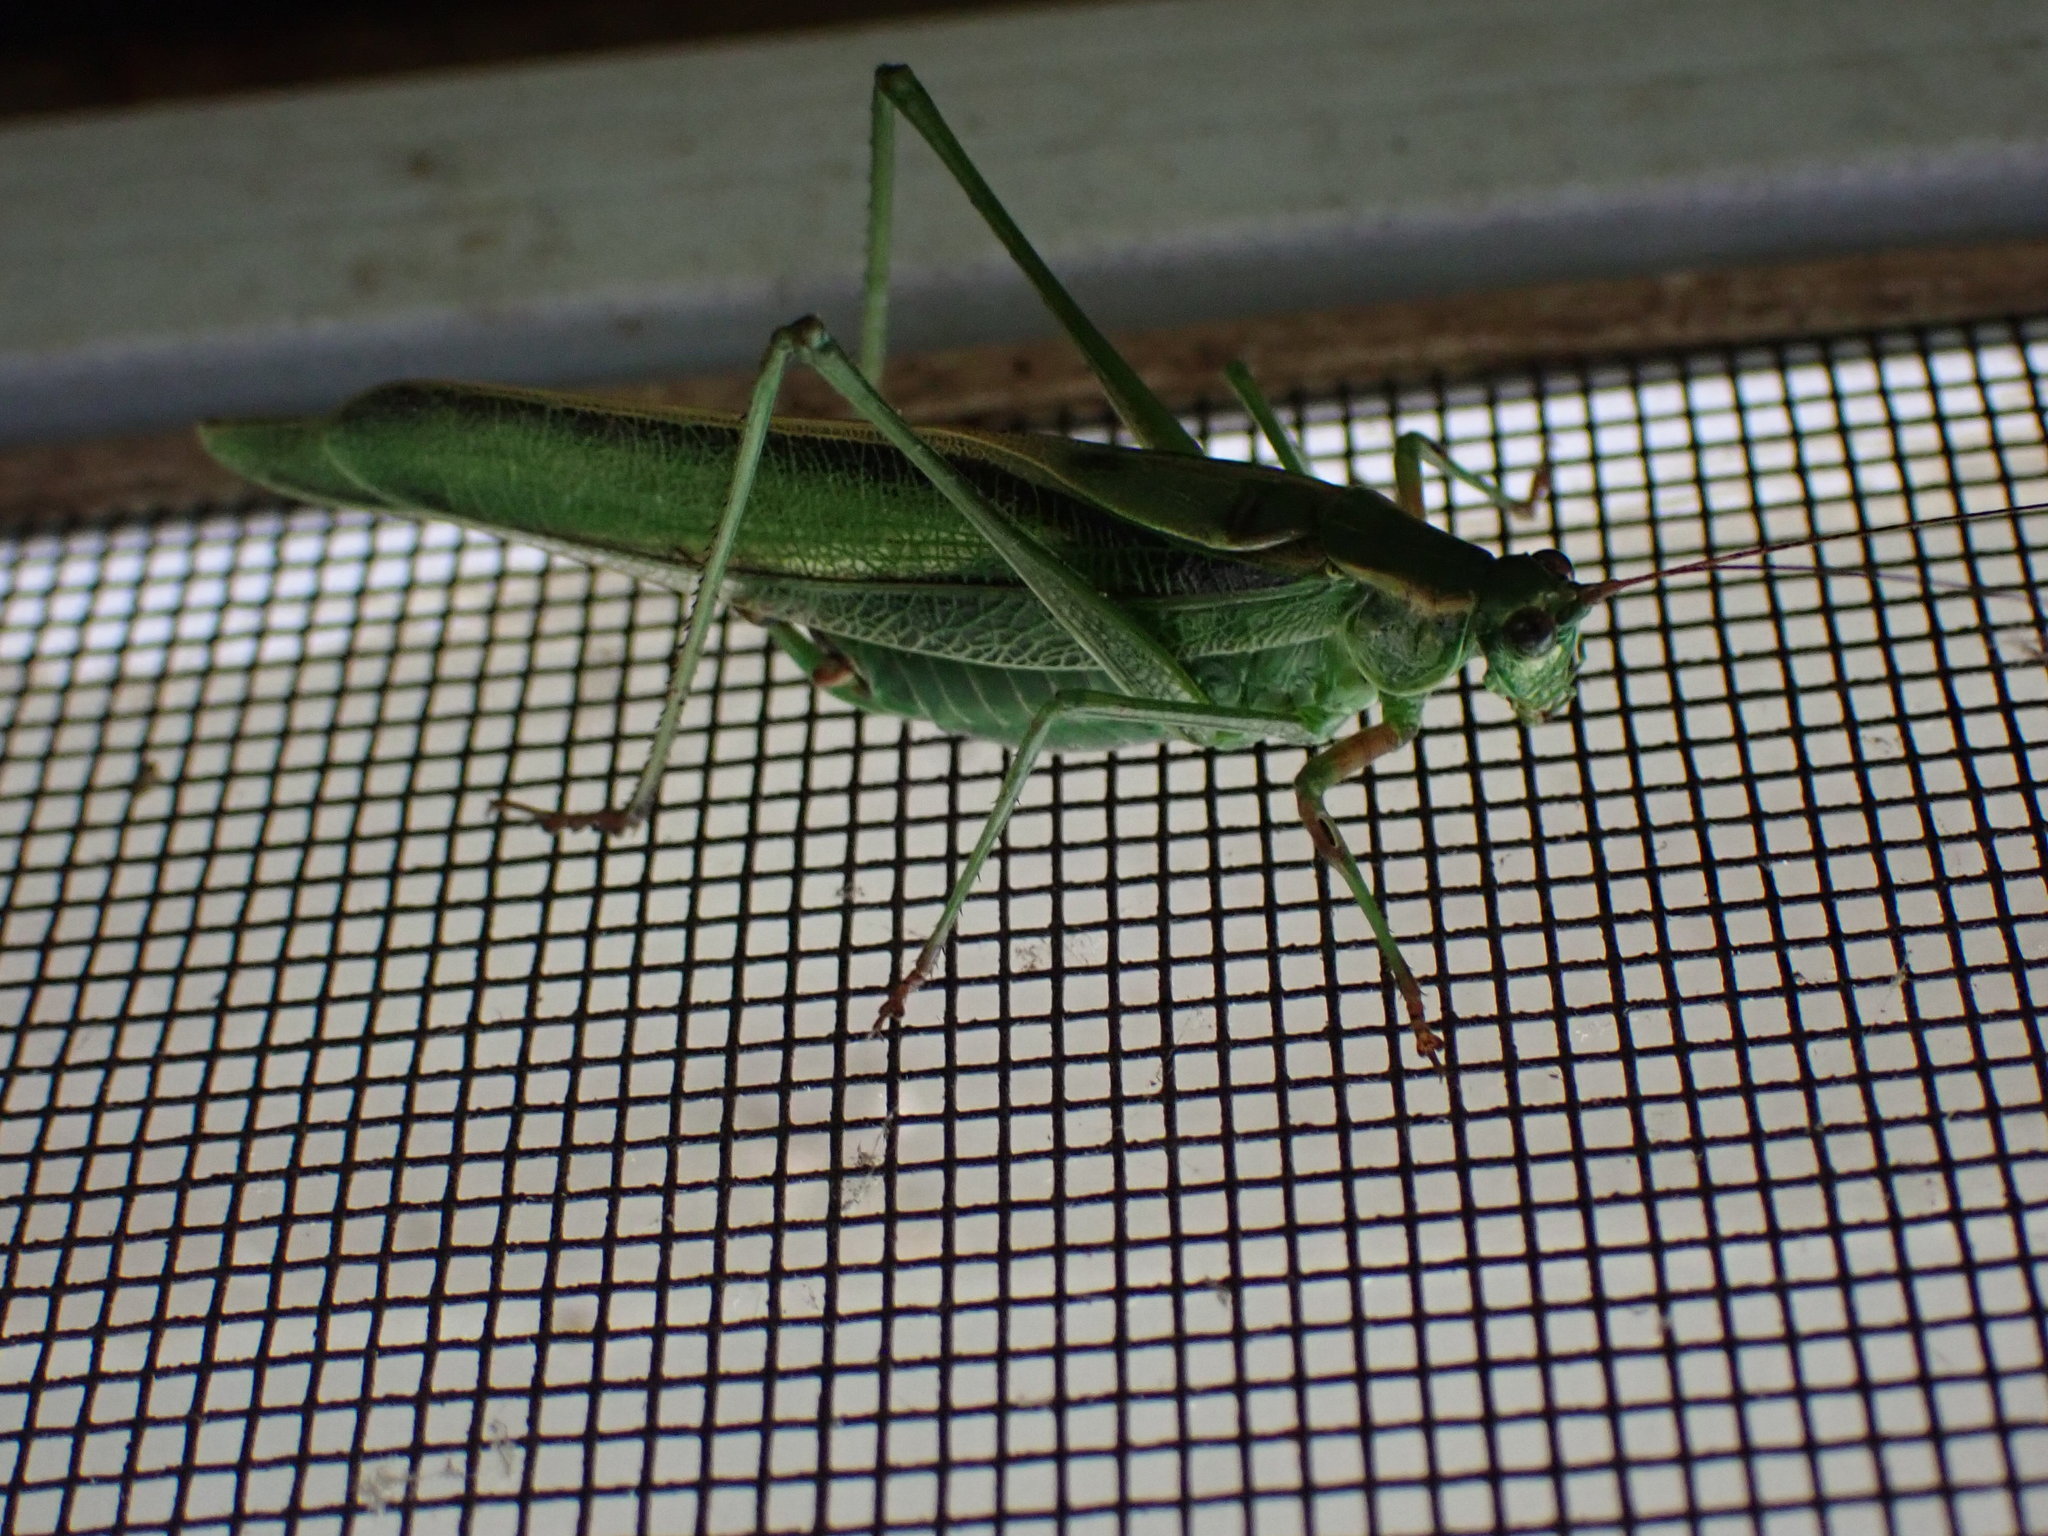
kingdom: Animalia
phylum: Arthropoda
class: Insecta
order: Orthoptera
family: Tettigoniidae
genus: Scudderia
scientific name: Scudderia fasciata
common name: Treetop bush katydid
